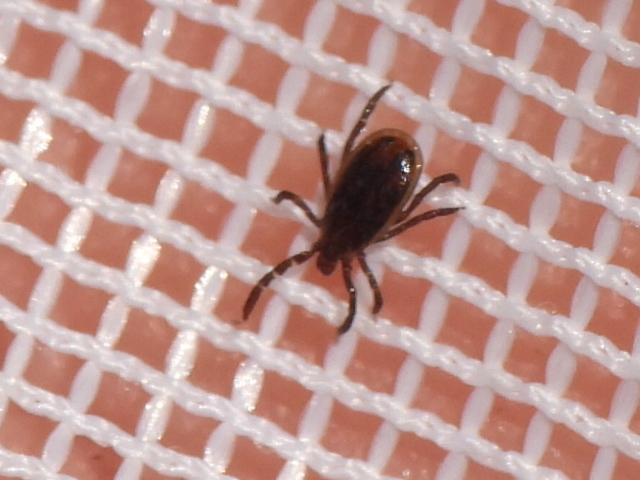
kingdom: Animalia
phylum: Arthropoda
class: Arachnida
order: Ixodida
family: Ixodidae
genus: Ixodes
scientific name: Ixodes scapularis
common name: Black legged tick
